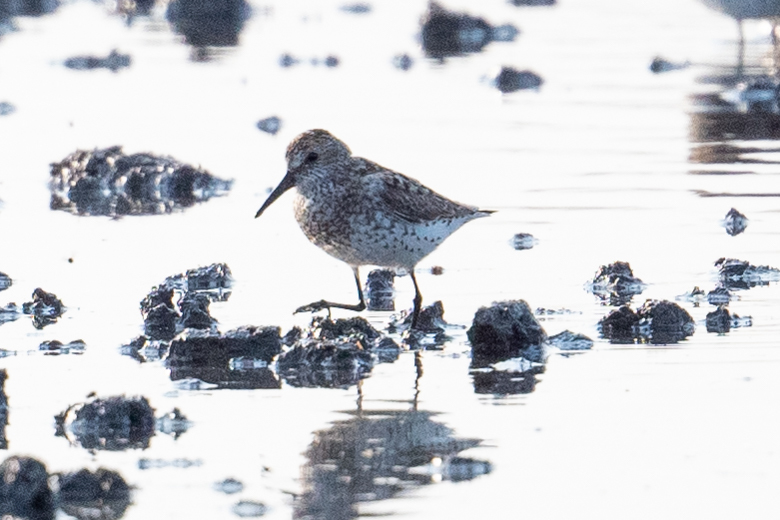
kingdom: Animalia
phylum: Chordata
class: Aves
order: Charadriiformes
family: Scolopacidae
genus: Calidris
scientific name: Calidris mauri
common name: Western sandpiper
